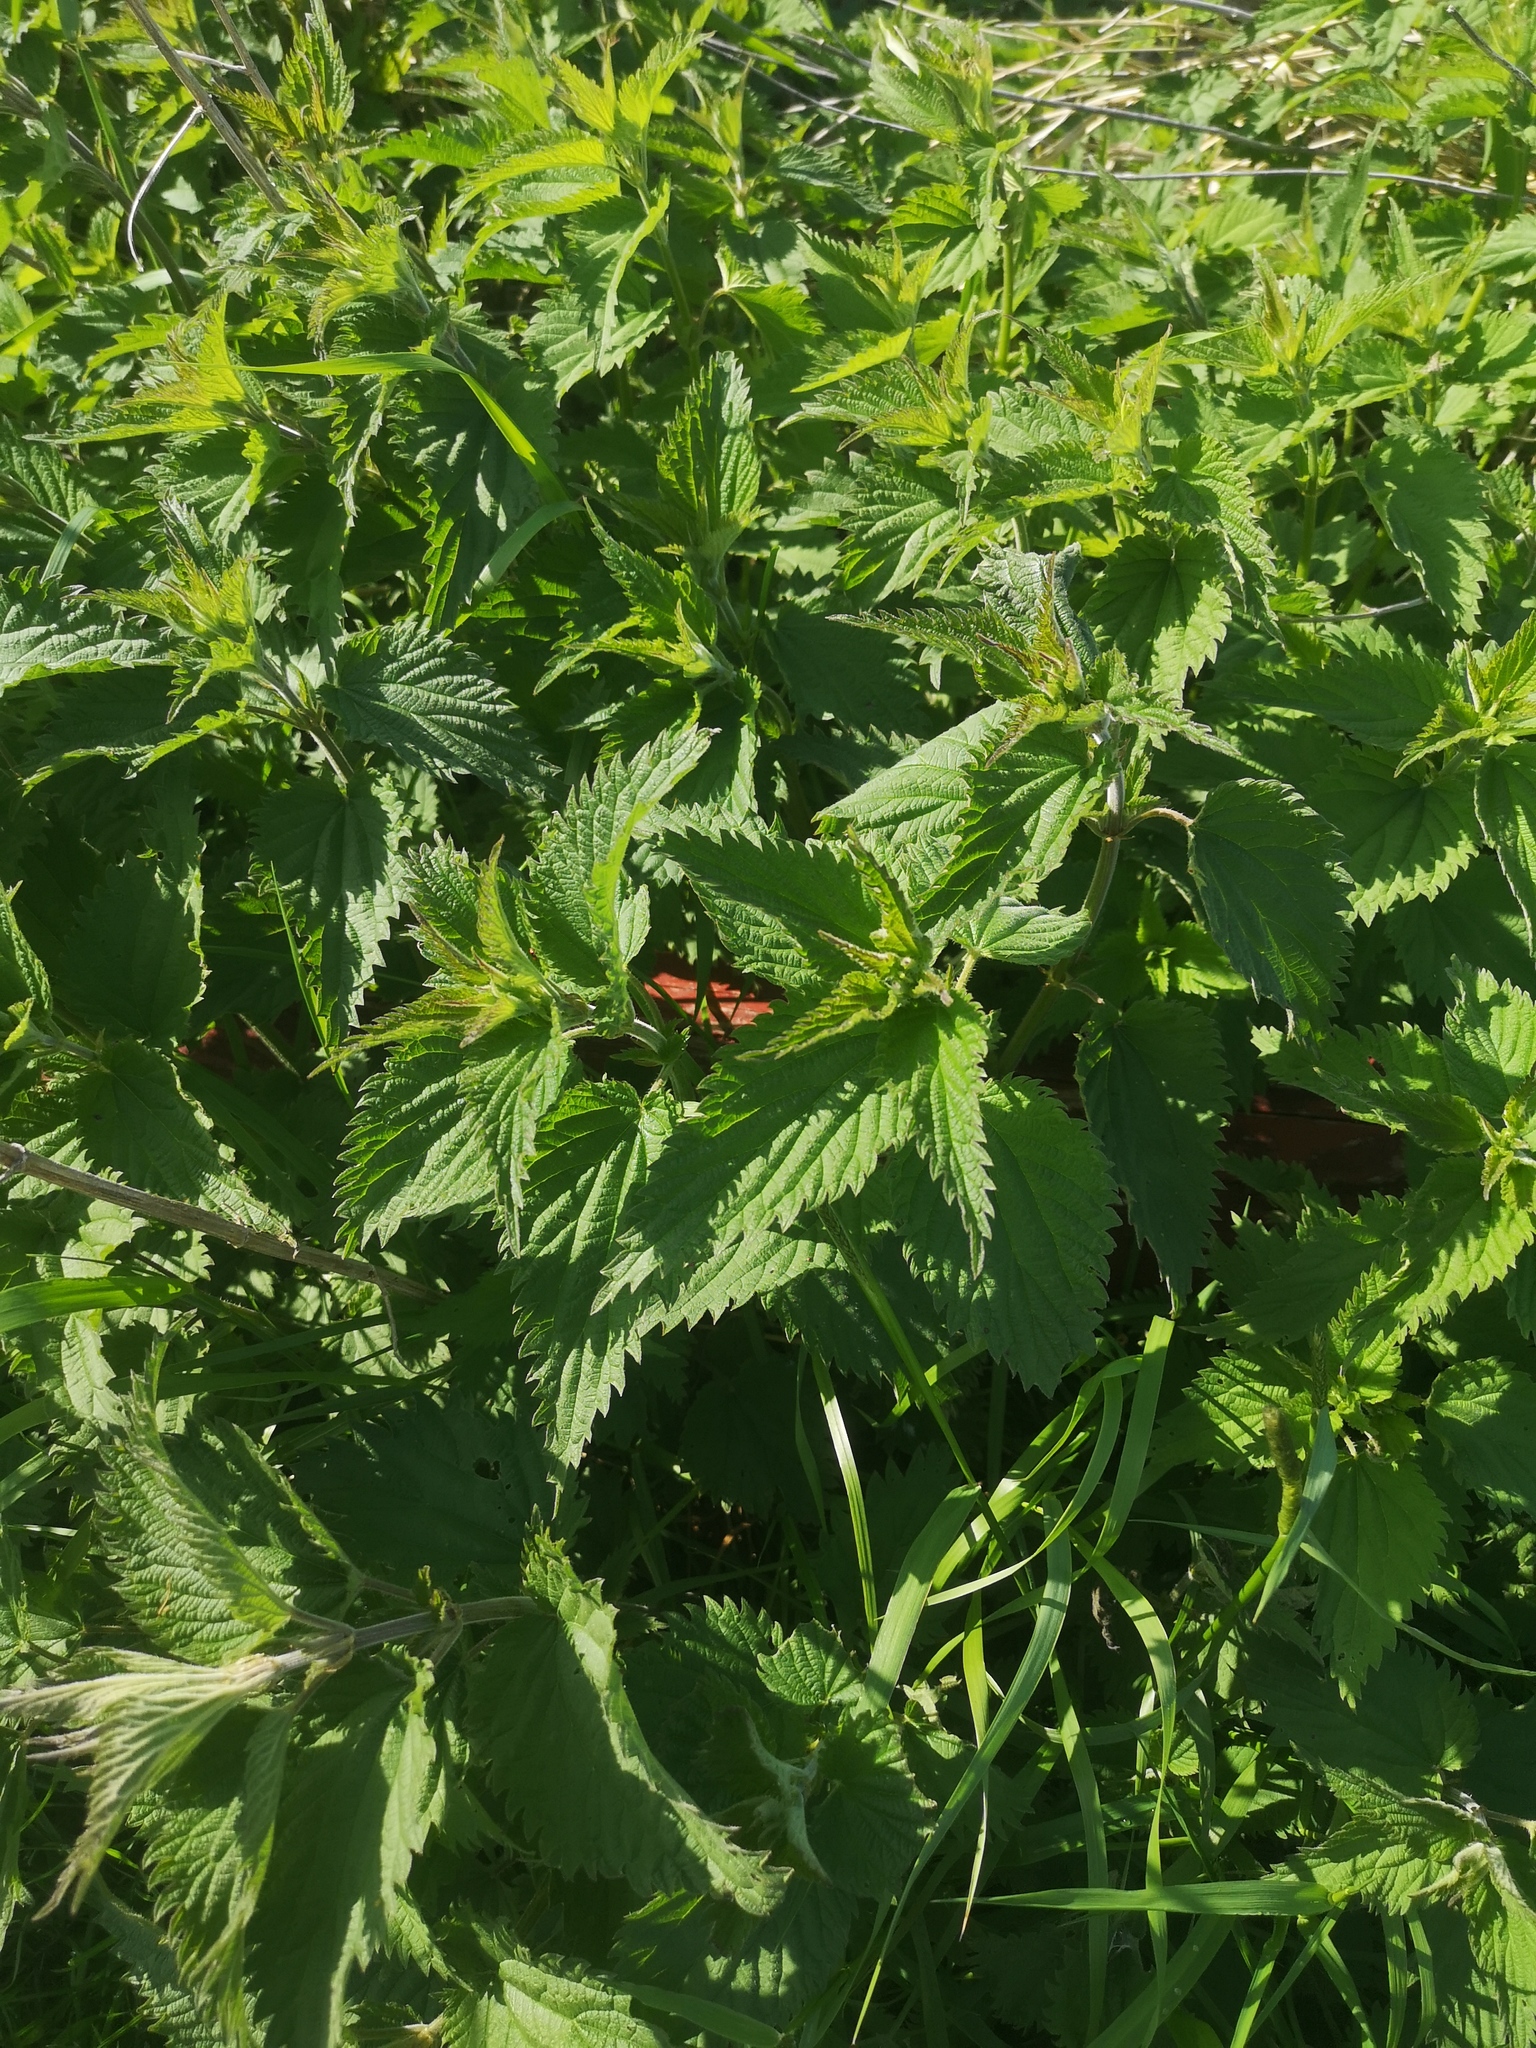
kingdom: Plantae
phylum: Tracheophyta
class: Magnoliopsida
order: Rosales
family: Urticaceae
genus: Urtica
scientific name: Urtica dioica
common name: Common nettle
